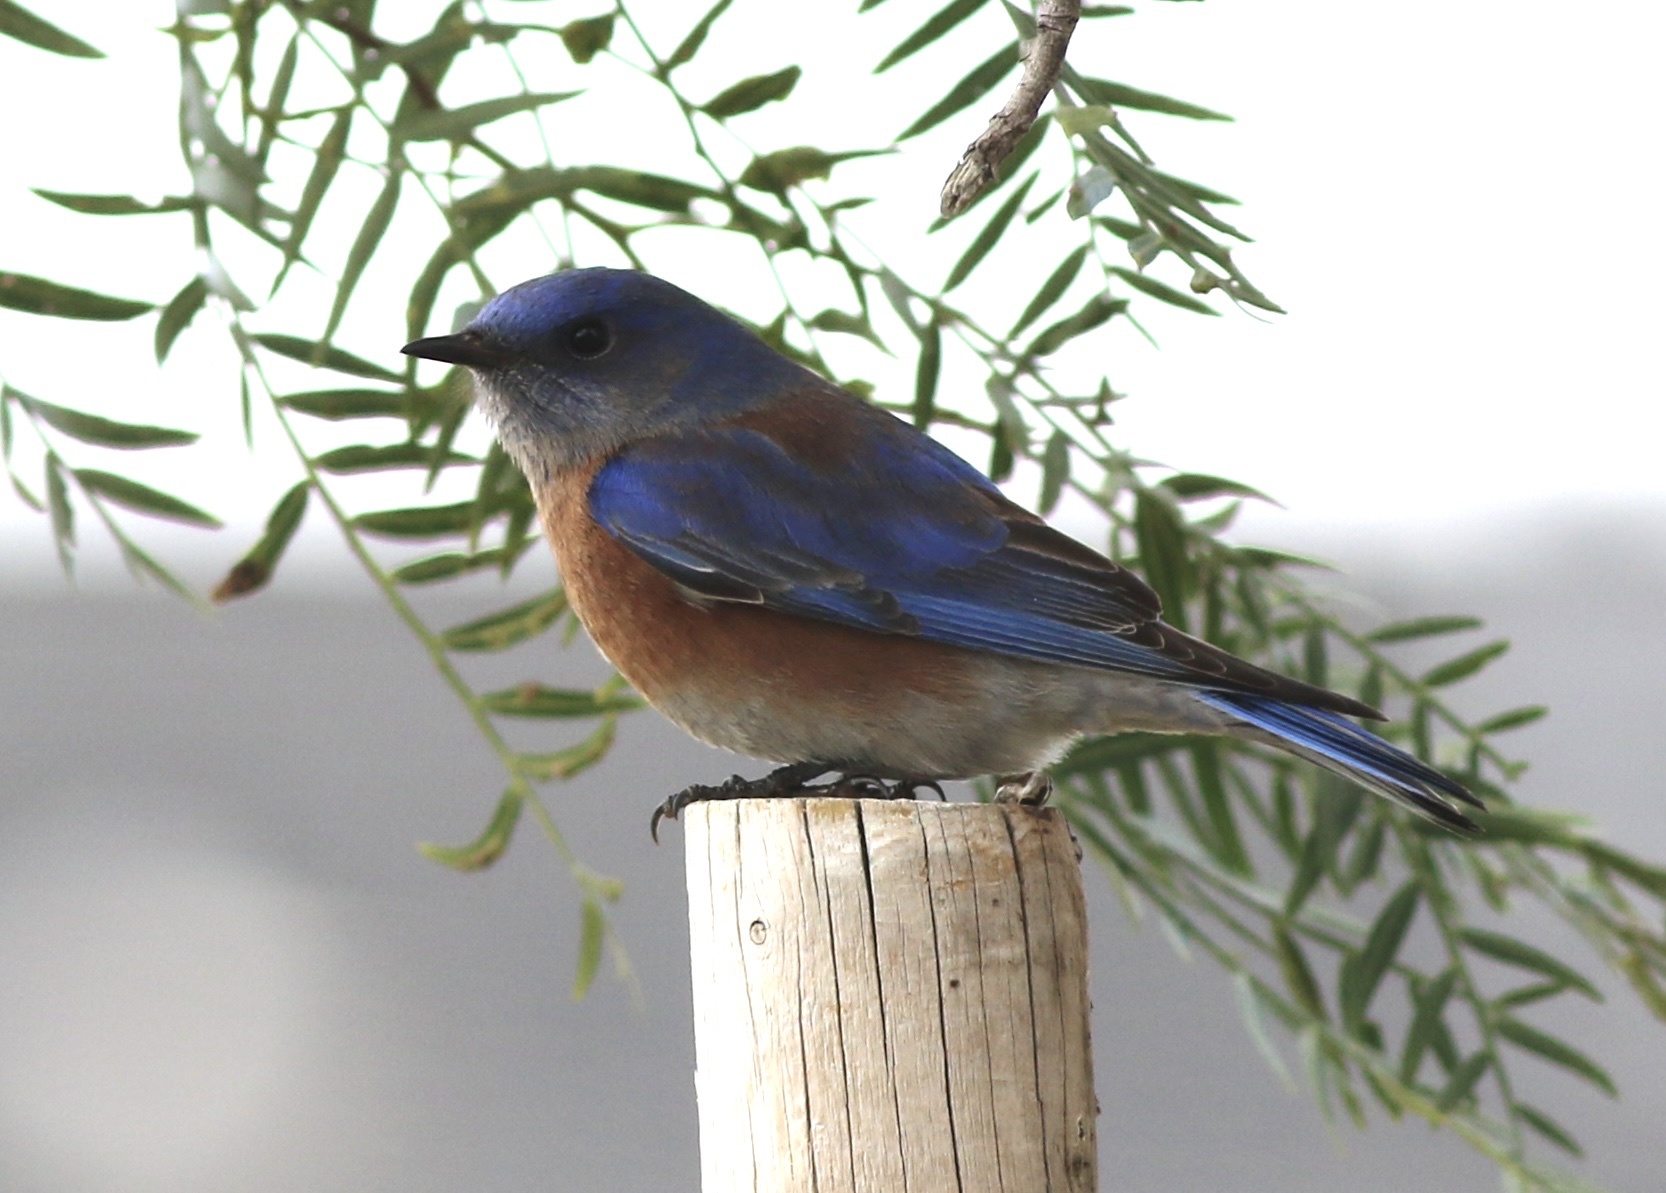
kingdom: Animalia
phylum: Chordata
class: Aves
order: Passeriformes
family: Turdidae
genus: Sialia
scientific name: Sialia mexicana
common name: Western bluebird
